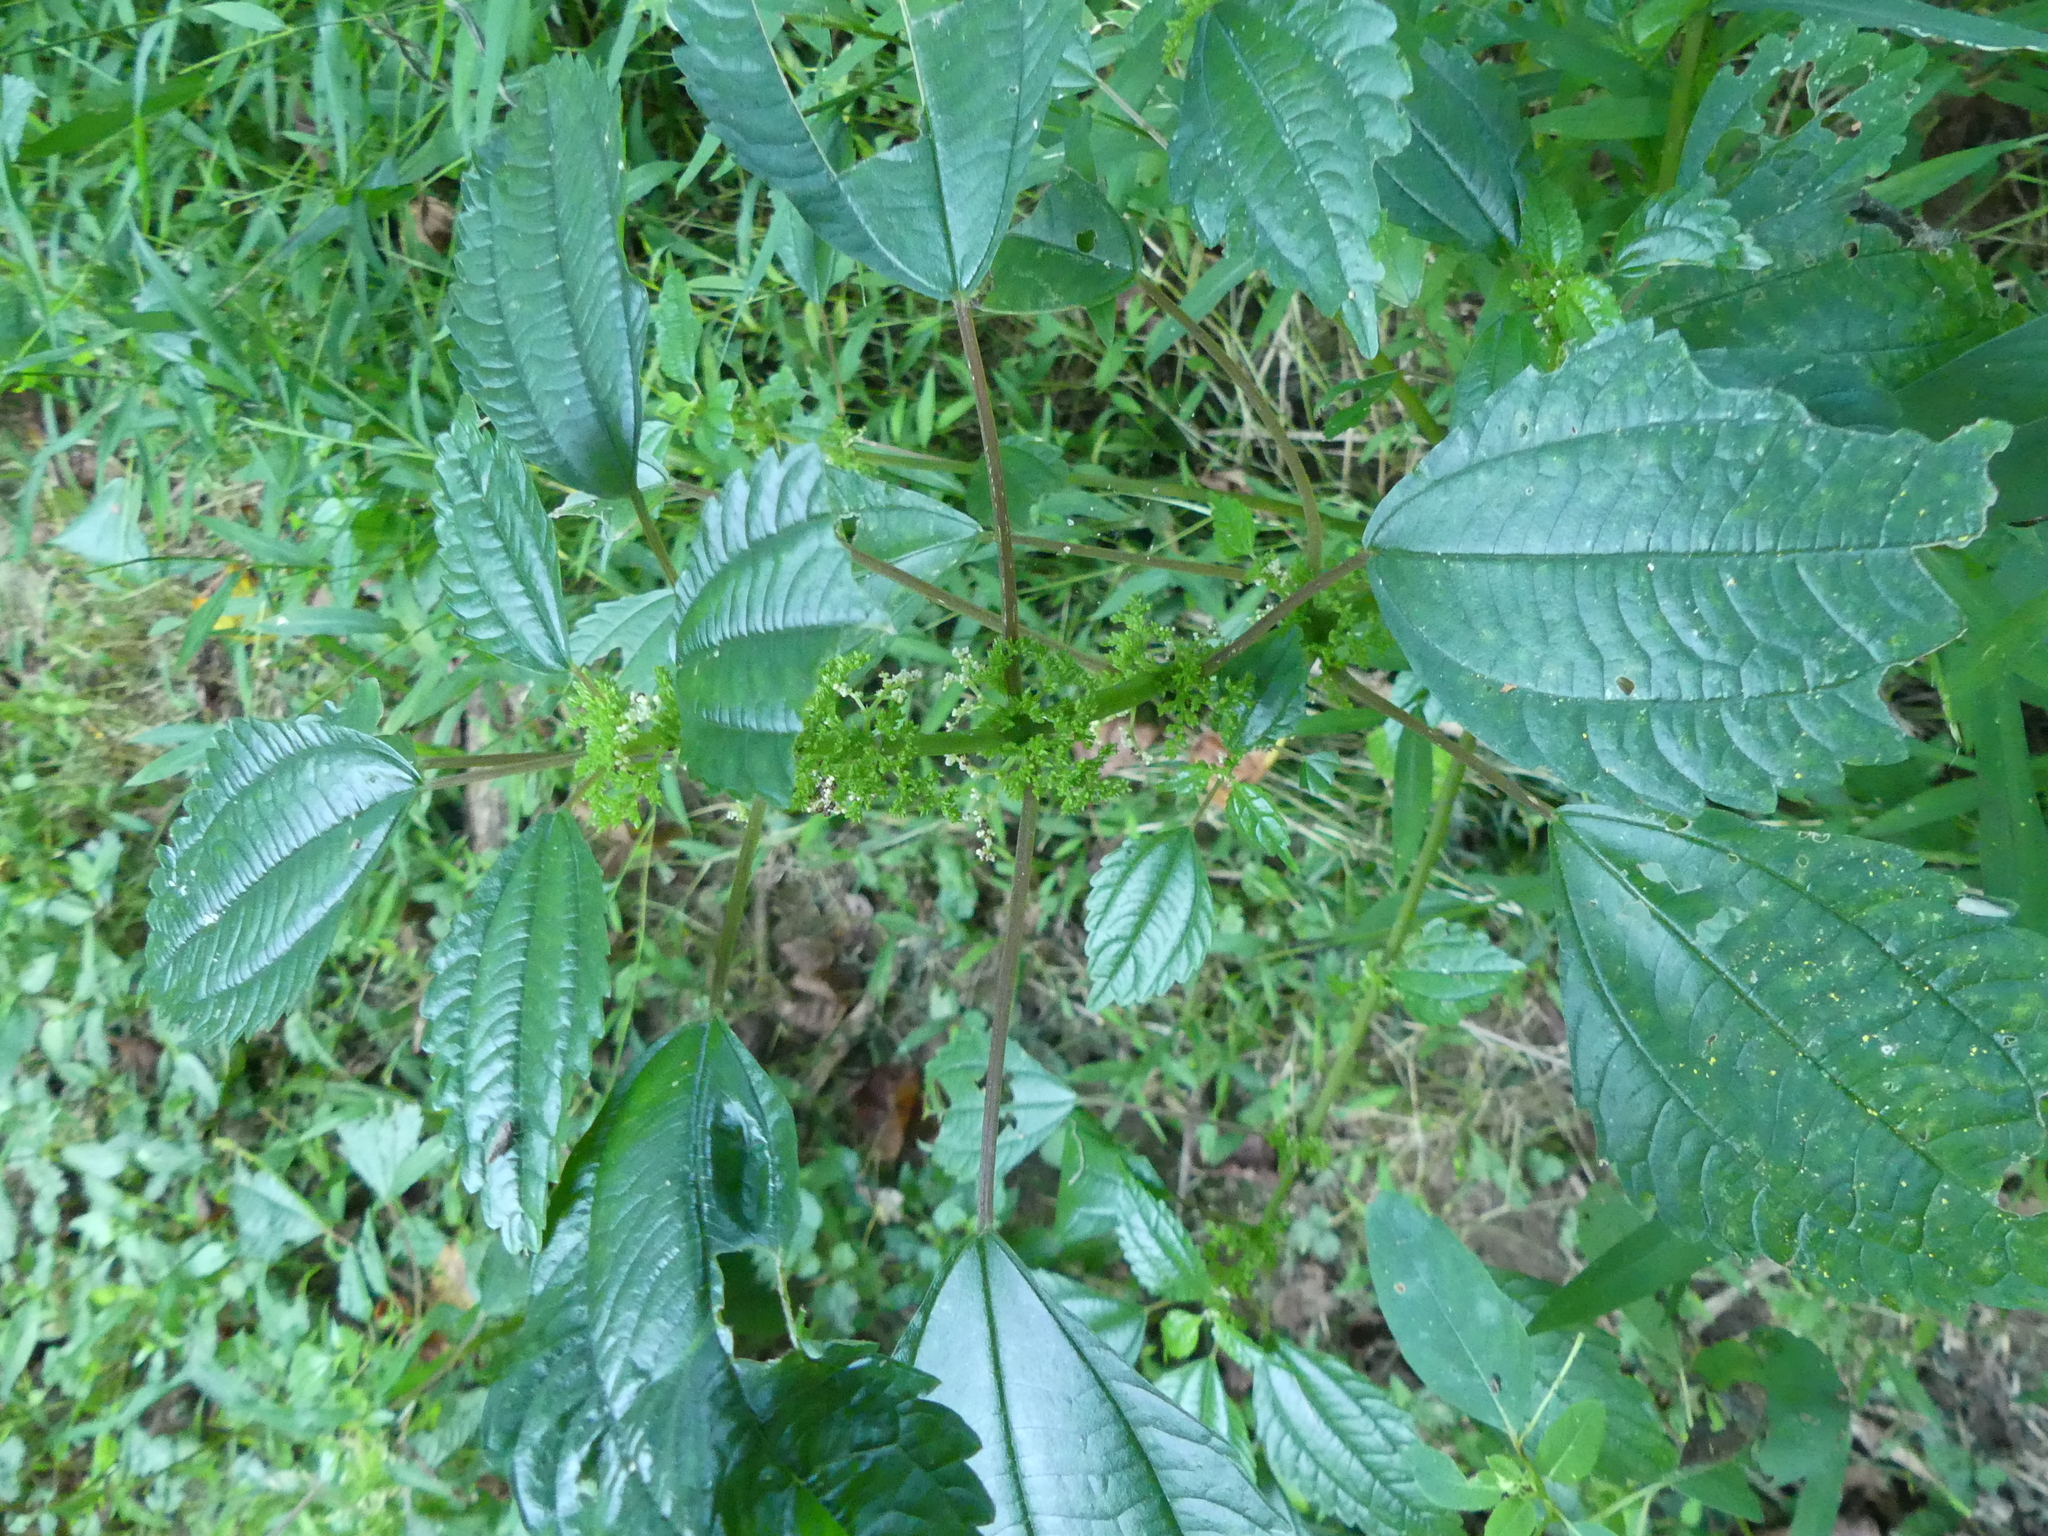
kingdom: Plantae
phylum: Tracheophyta
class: Magnoliopsida
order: Rosales
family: Urticaceae
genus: Pilea
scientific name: Pilea pumila
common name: Clearweed
